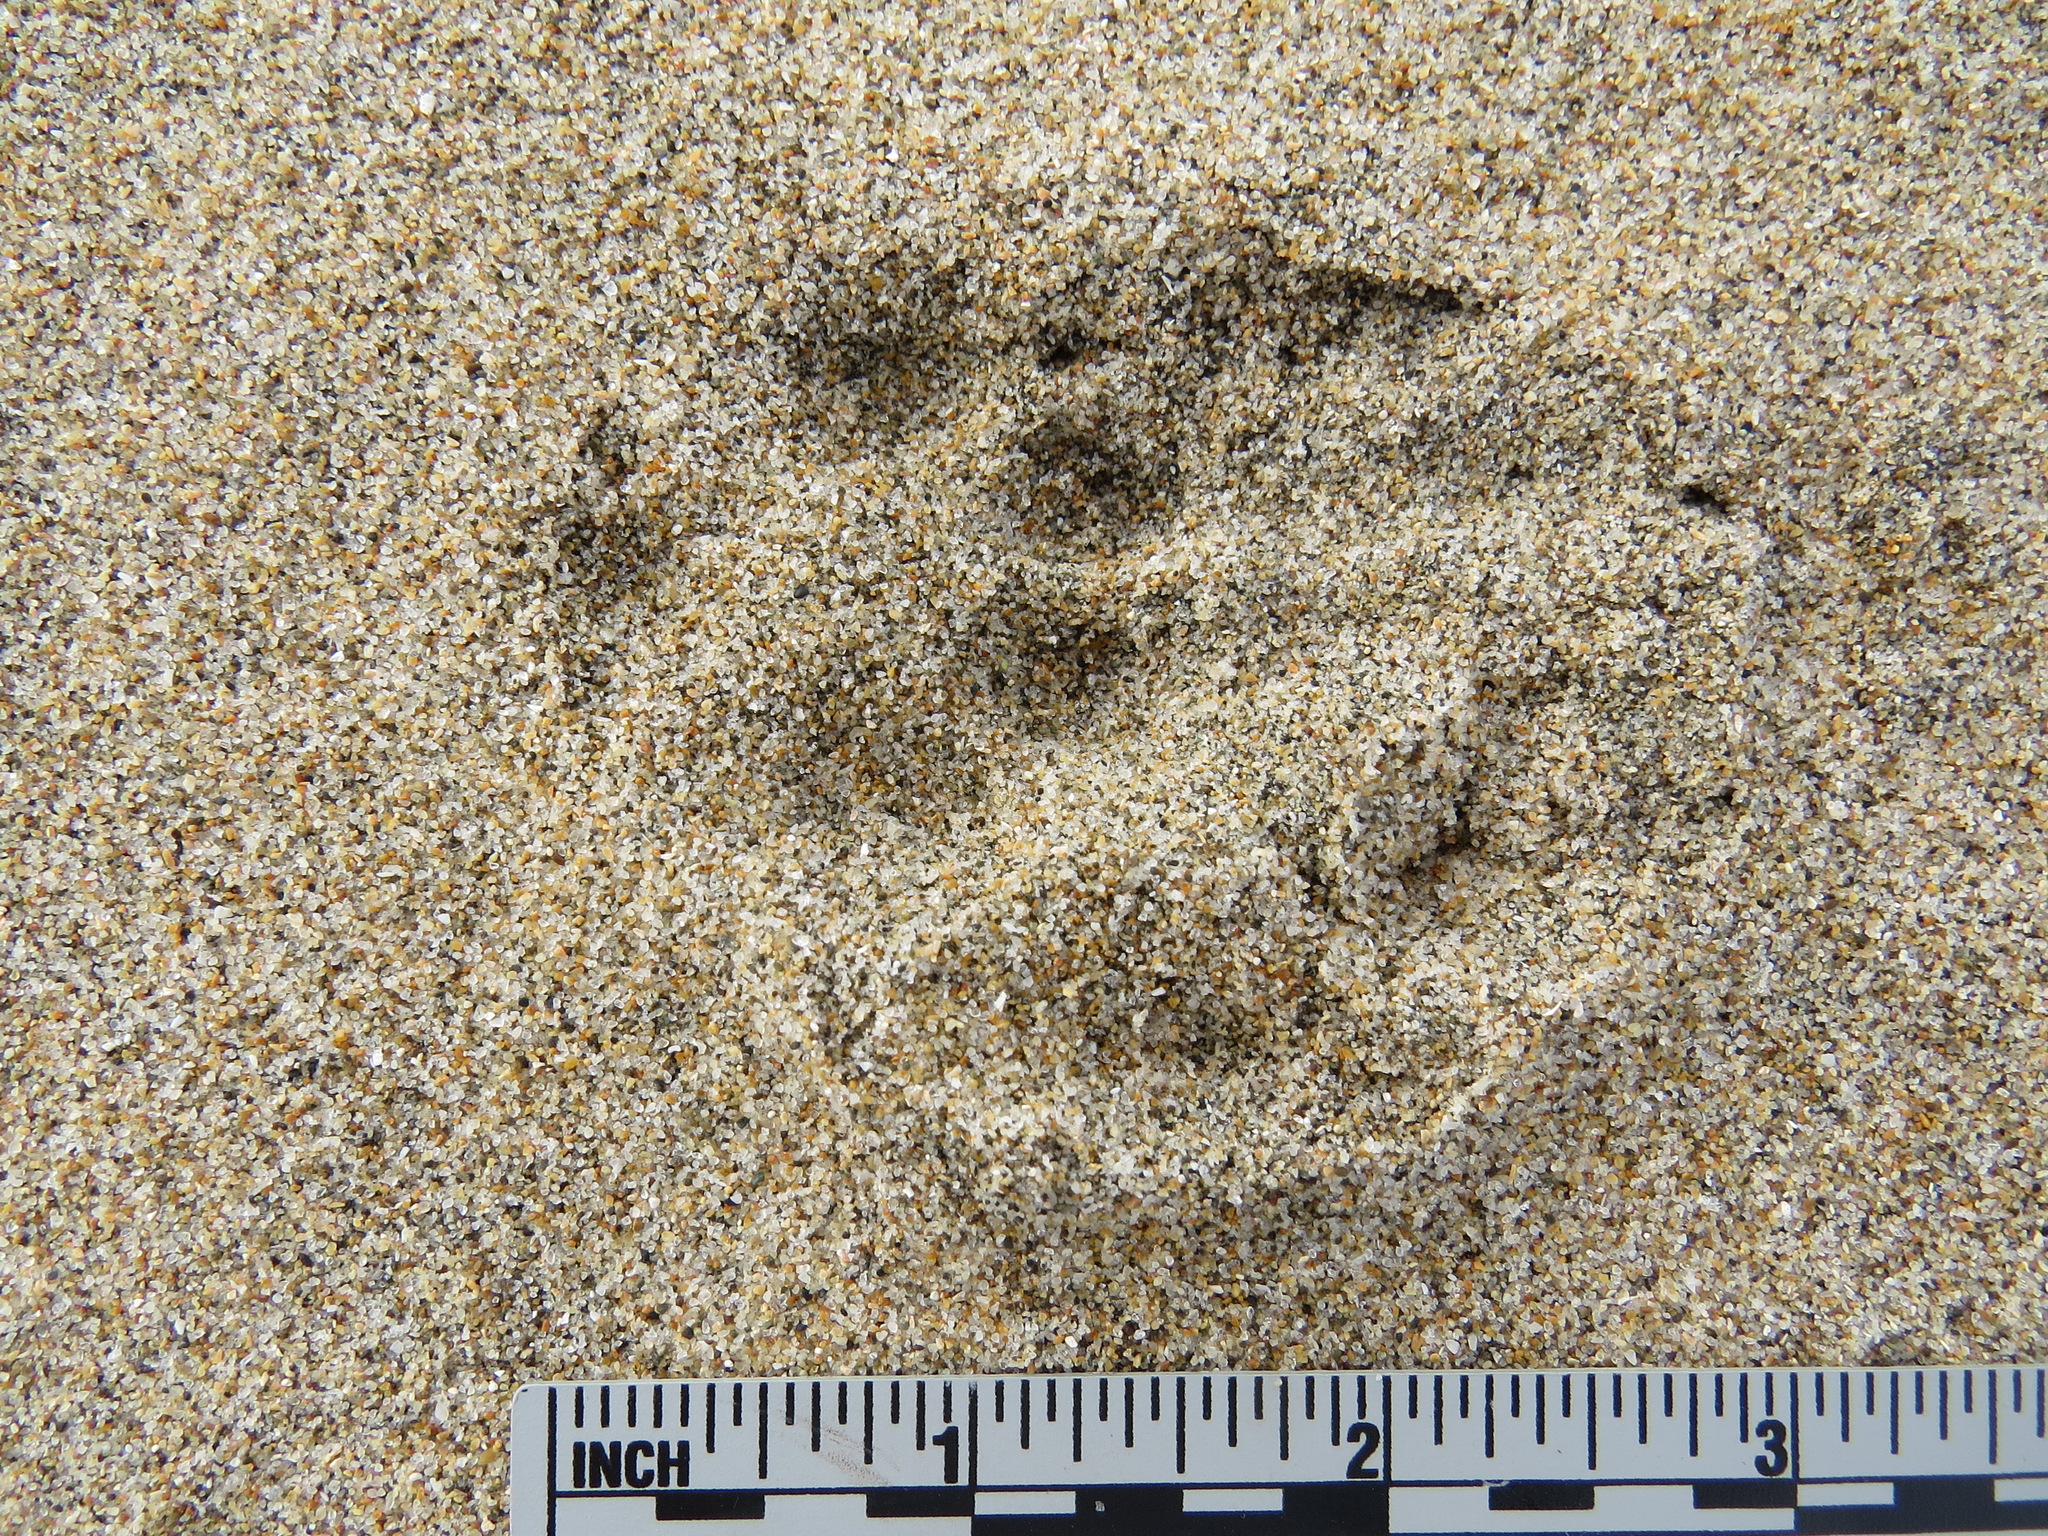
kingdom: Animalia
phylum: Chordata
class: Mammalia
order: Carnivora
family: Canidae
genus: Urocyon
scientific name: Urocyon cinereoargenteus
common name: Gray fox
